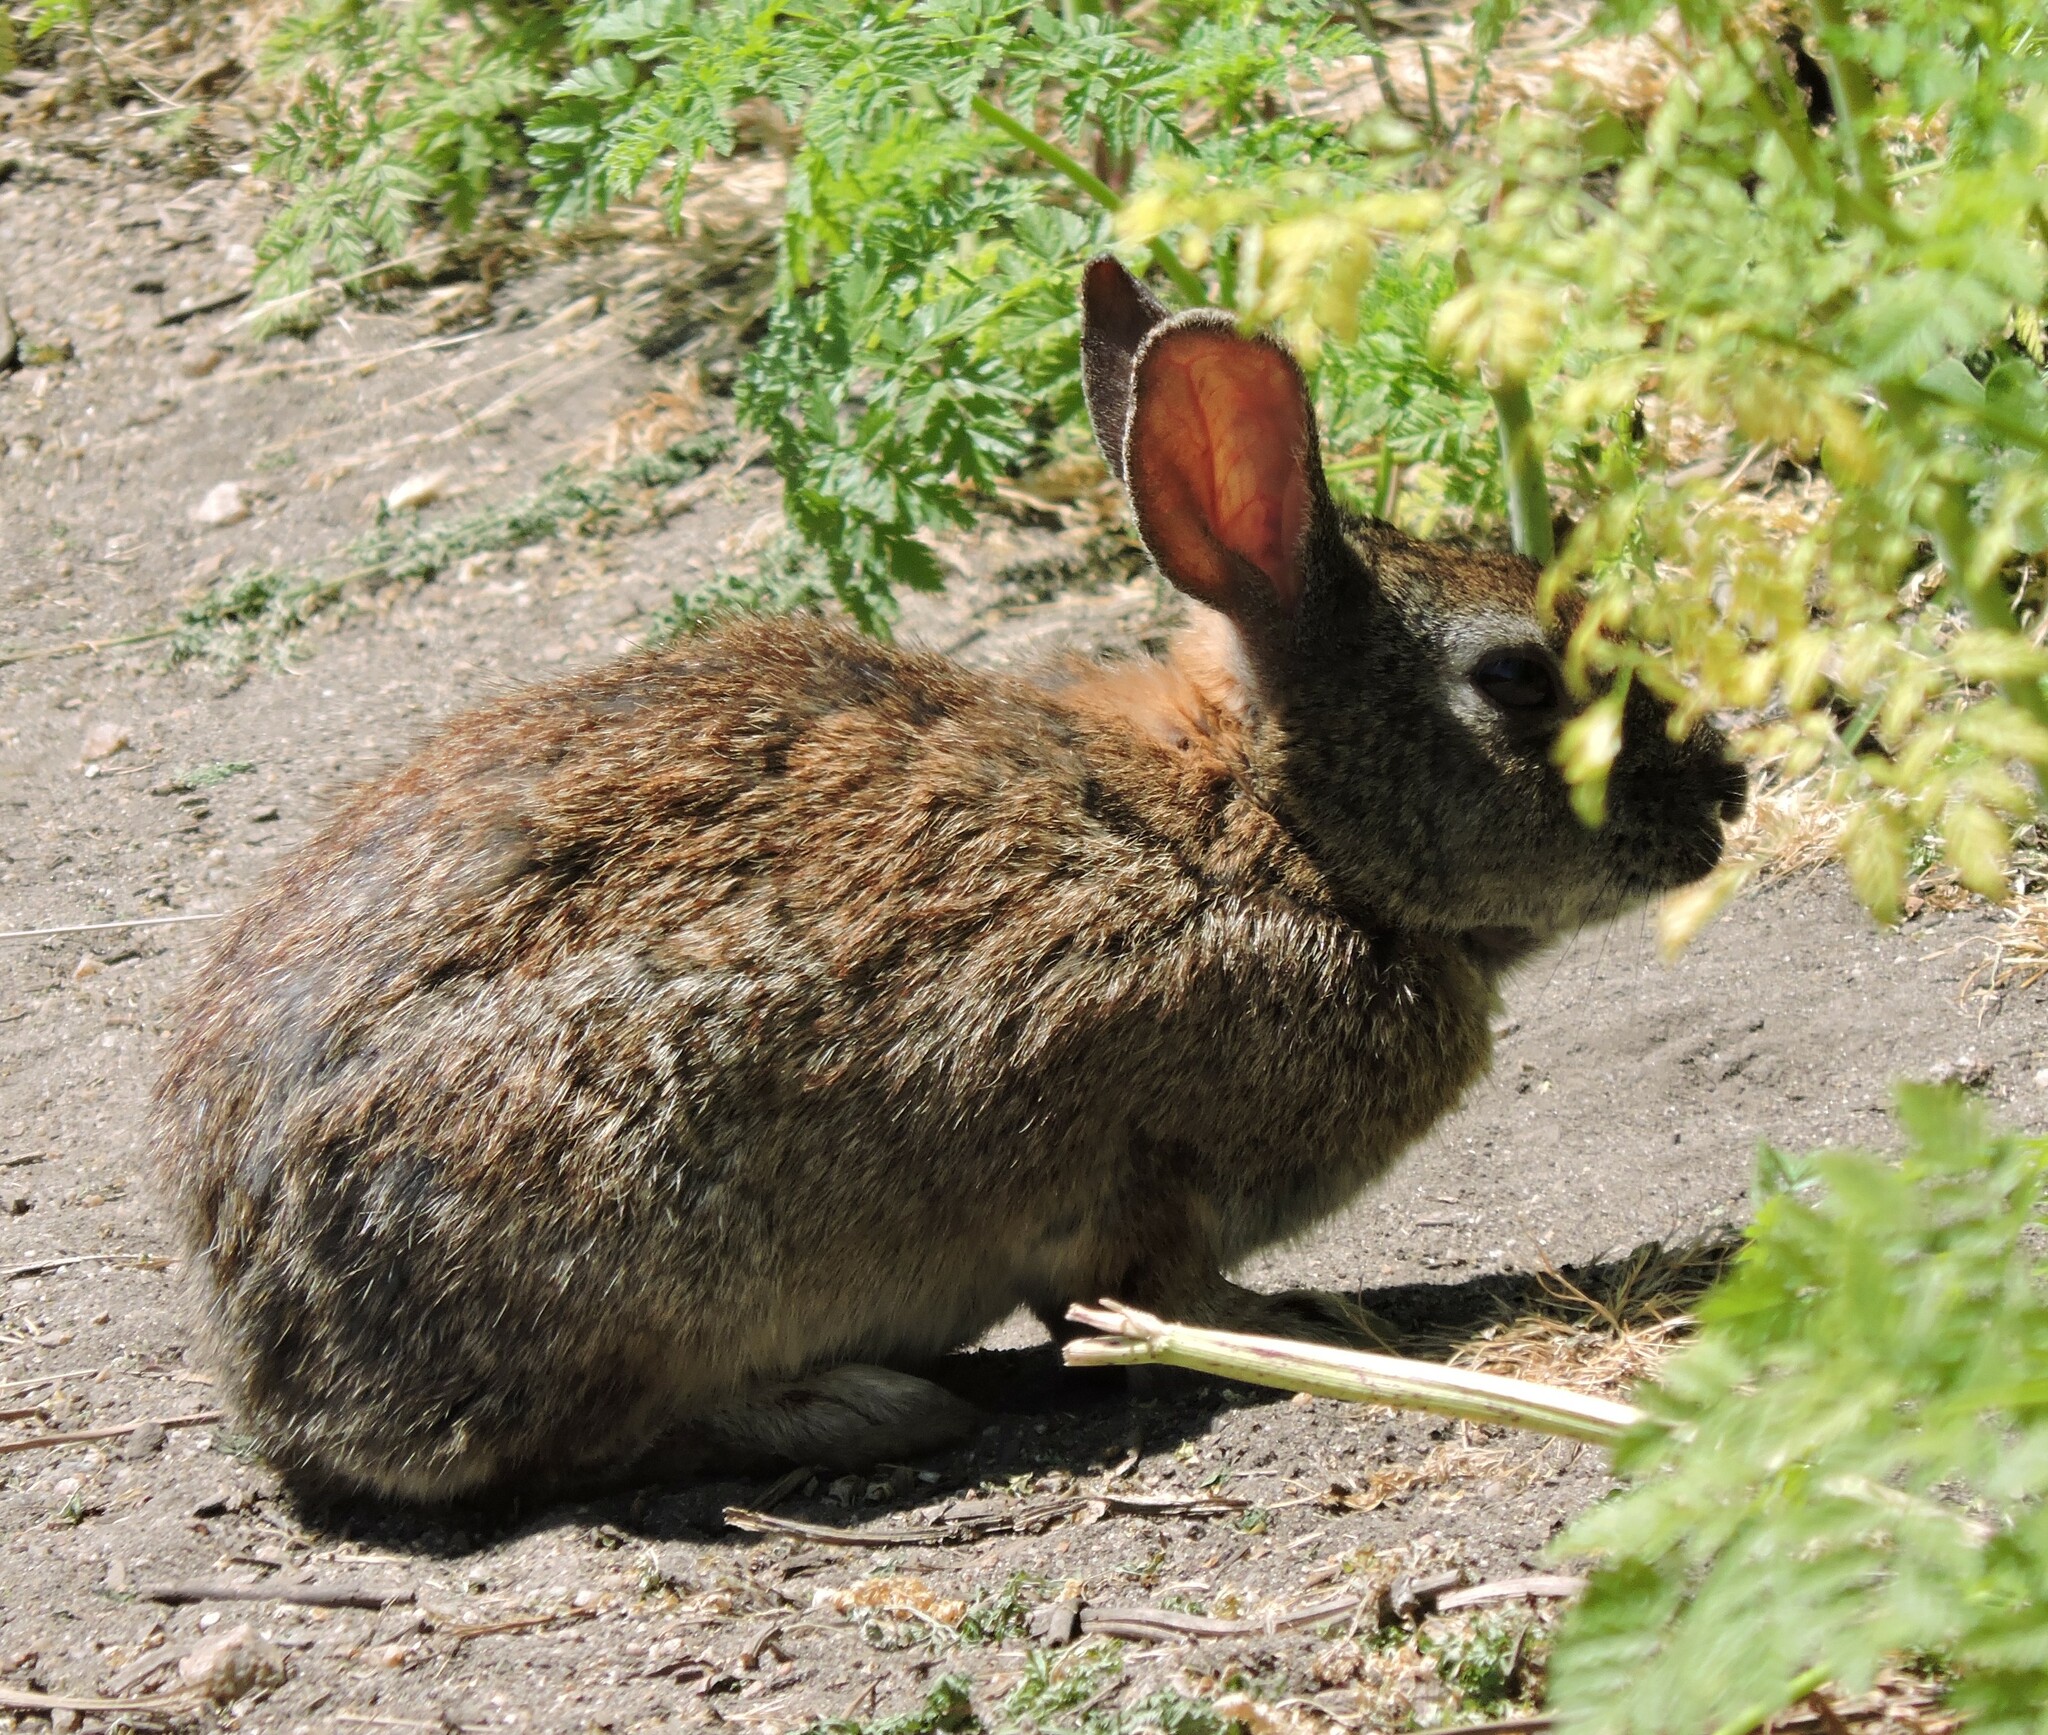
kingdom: Animalia
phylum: Chordata
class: Mammalia
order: Lagomorpha
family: Leporidae
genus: Sylvilagus
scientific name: Sylvilagus bachmani
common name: Brush rabbit
